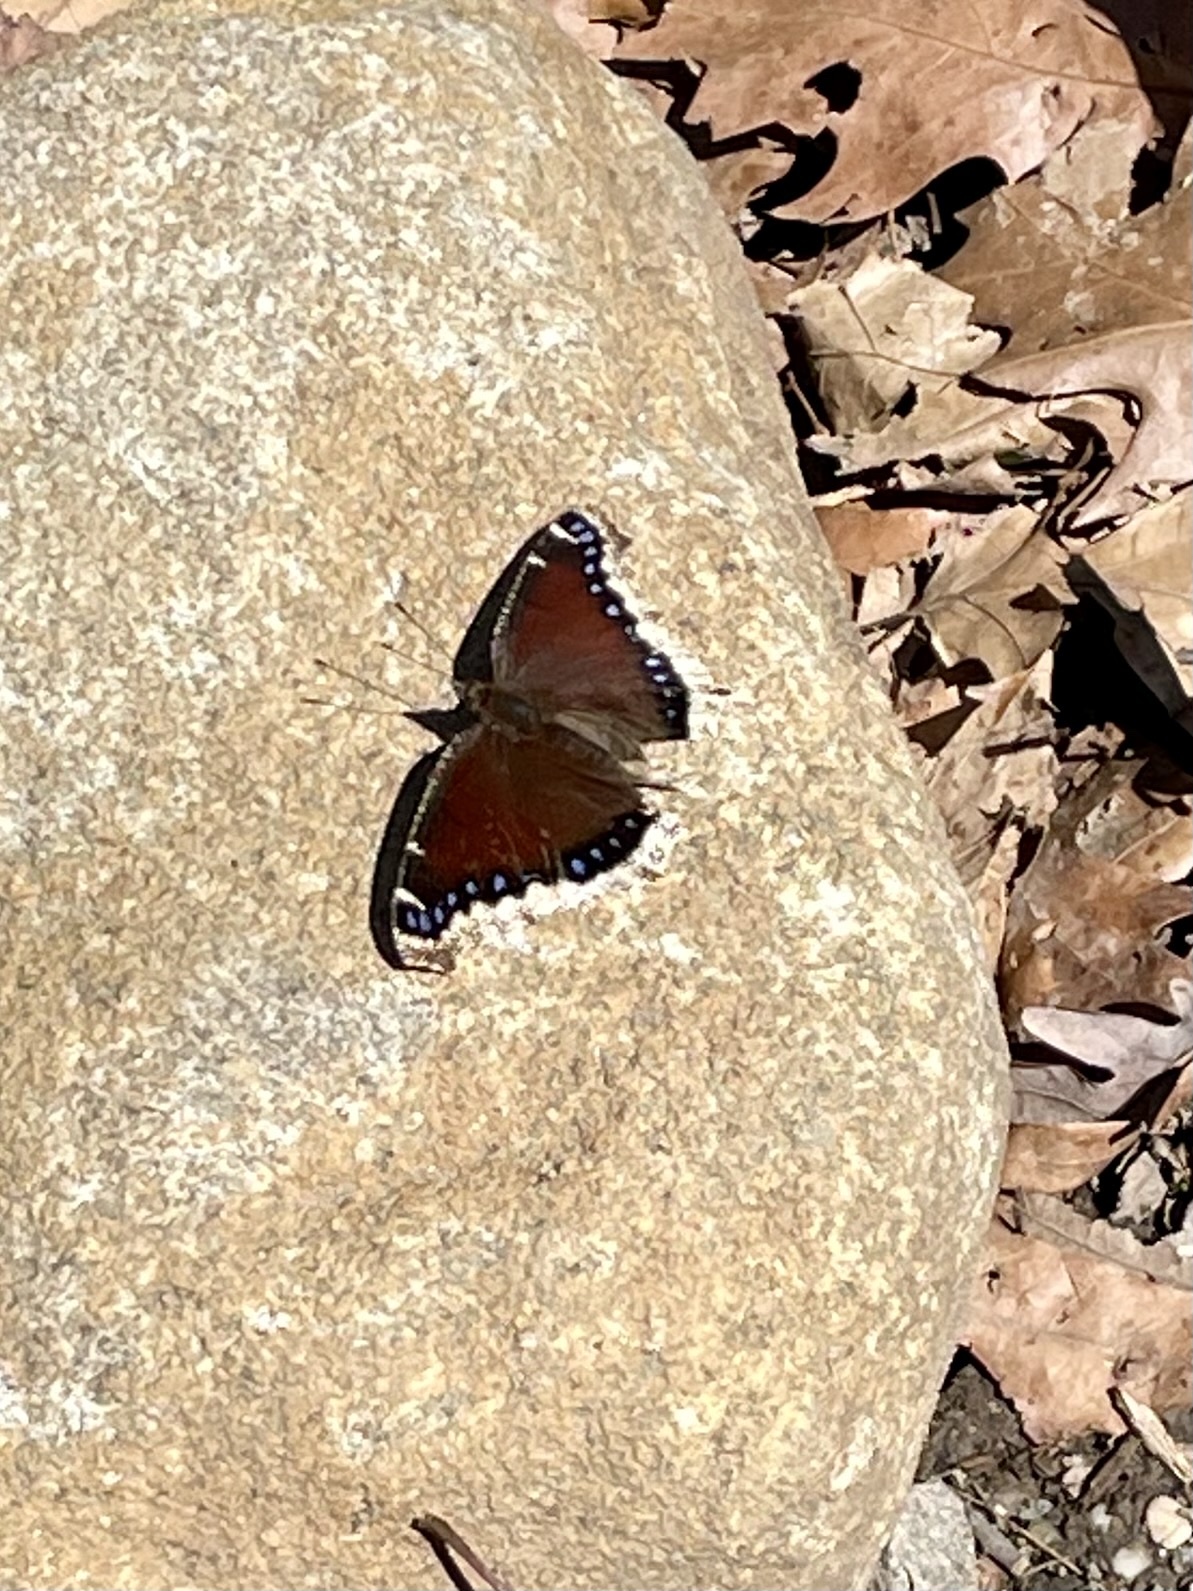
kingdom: Animalia
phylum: Arthropoda
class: Insecta
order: Lepidoptera
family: Nymphalidae
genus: Nymphalis
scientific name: Nymphalis antiopa
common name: Camberwell beauty
